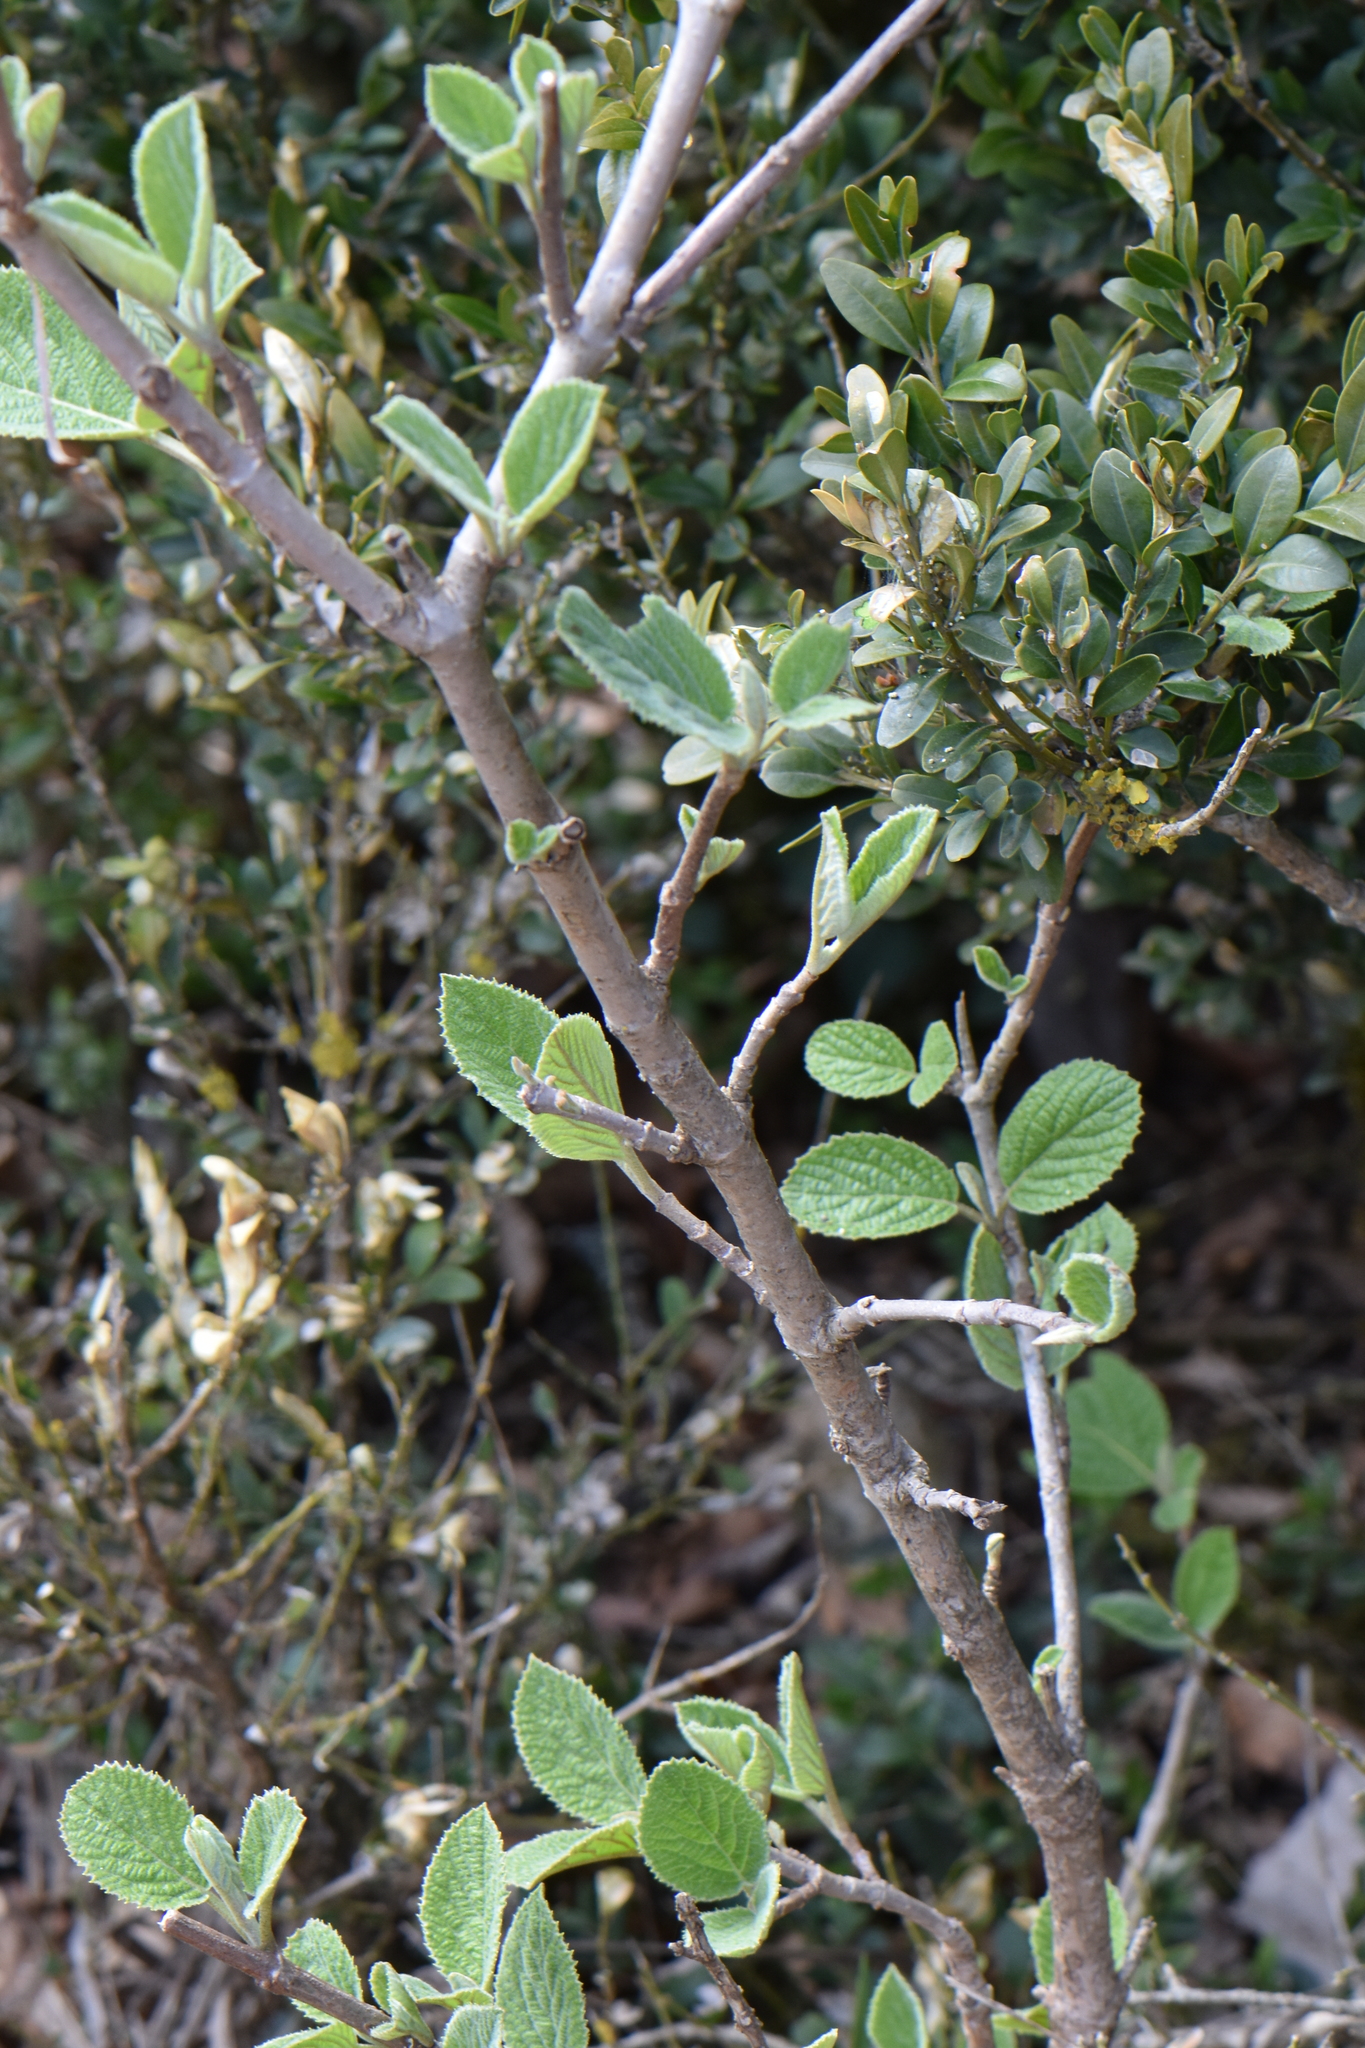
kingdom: Plantae
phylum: Tracheophyta
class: Magnoliopsida
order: Dipsacales
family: Viburnaceae
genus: Viburnum
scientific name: Viburnum lantana
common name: Wayfaring tree
